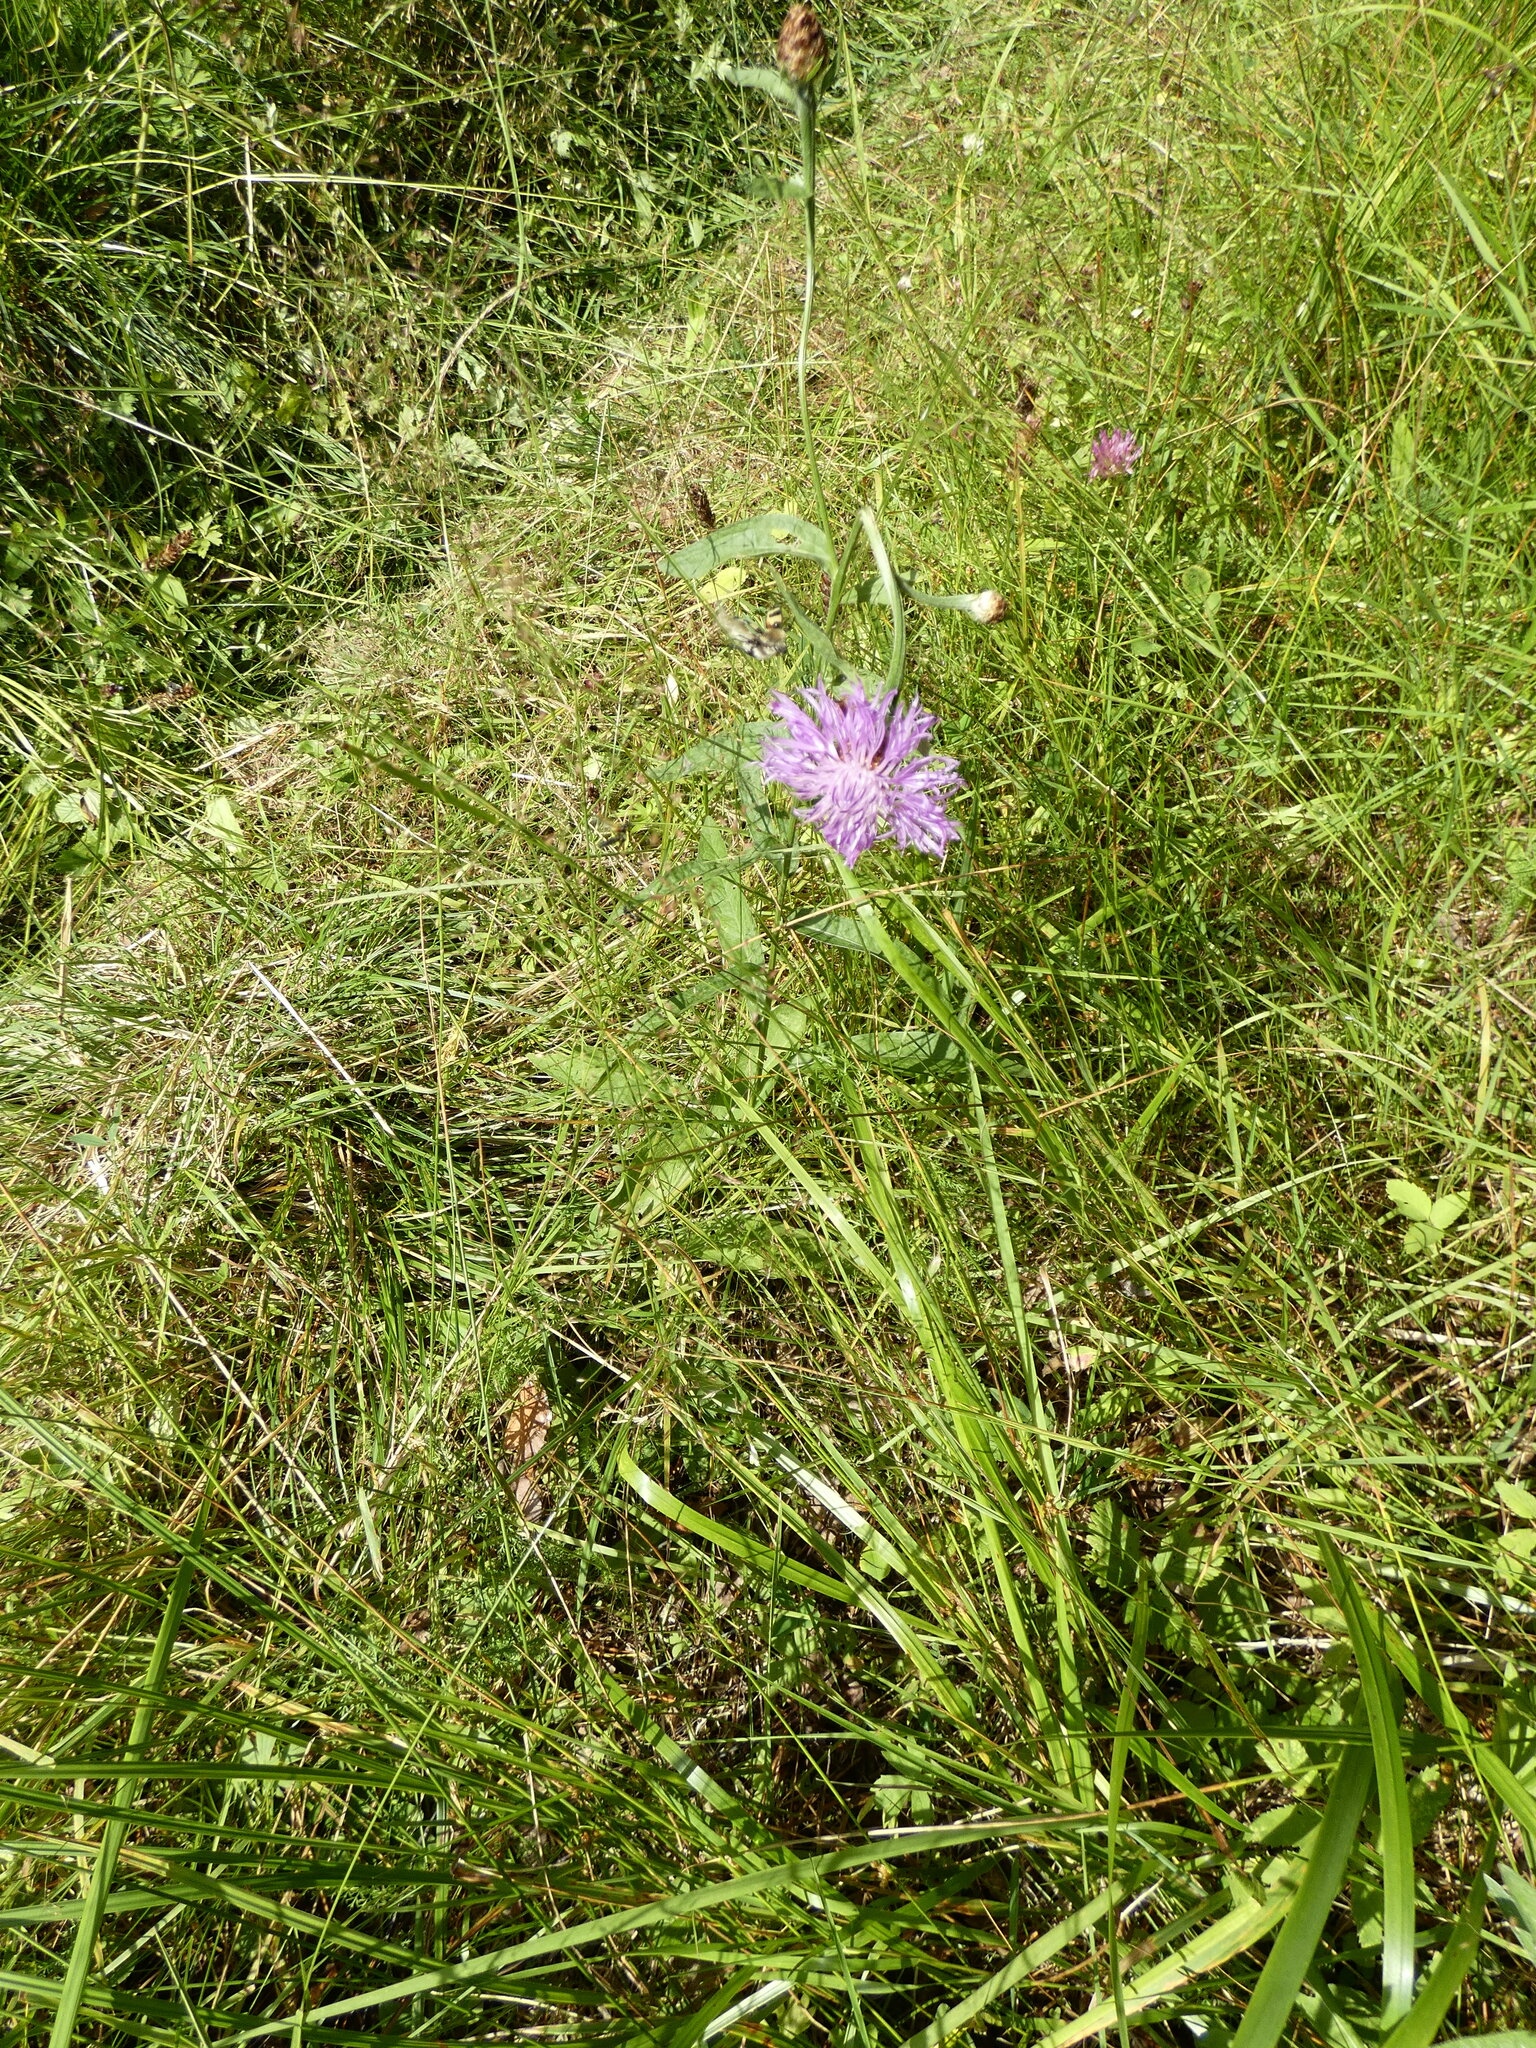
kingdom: Plantae
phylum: Tracheophyta
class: Magnoliopsida
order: Asterales
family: Asteraceae
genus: Centaurea
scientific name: Centaurea jacea
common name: Brown knapweed
